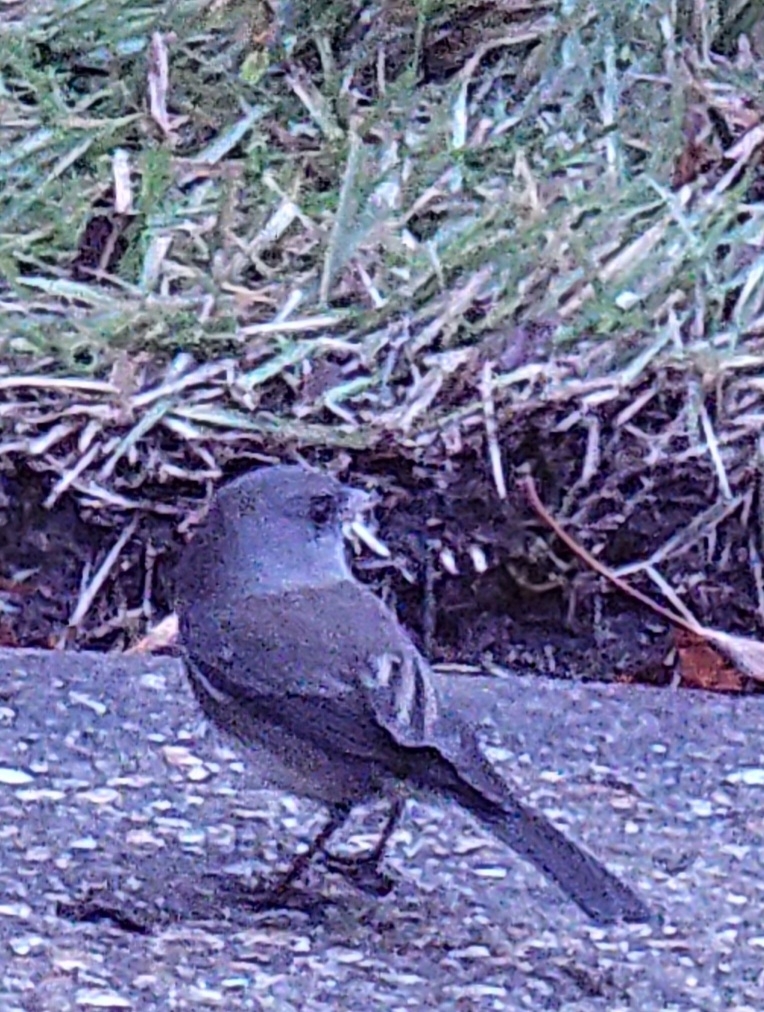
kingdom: Animalia
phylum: Chordata
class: Aves
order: Passeriformes
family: Passerellidae
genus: Junco
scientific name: Junco hyemalis
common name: Dark-eyed junco
